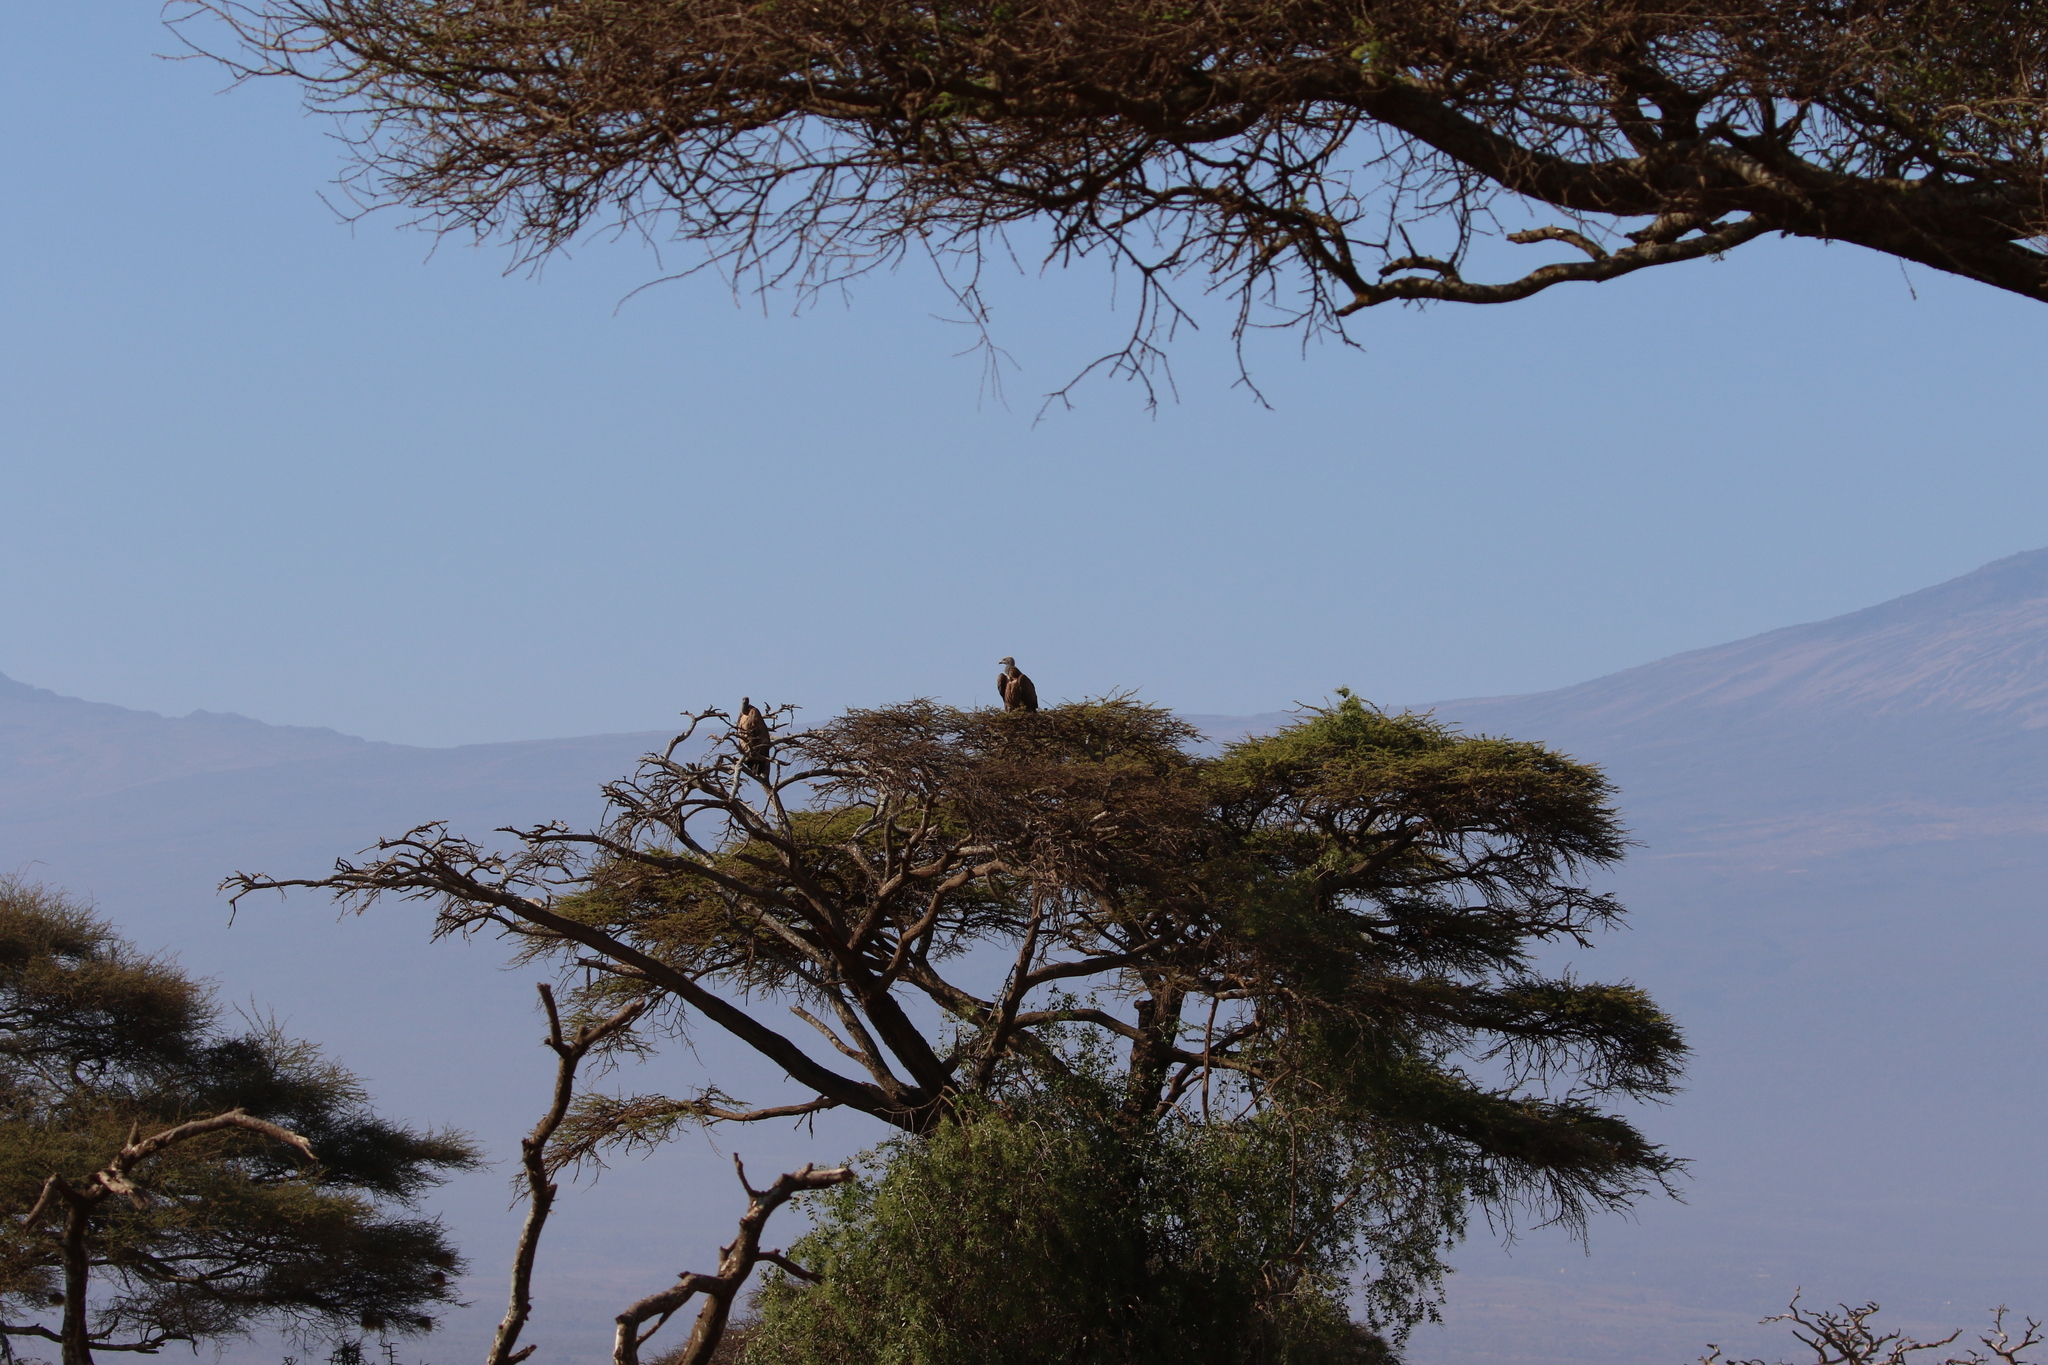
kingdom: Animalia
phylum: Chordata
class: Aves
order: Accipitriformes
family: Accipitridae
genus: Gyps
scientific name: Gyps africanus
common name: White-backed vulture
